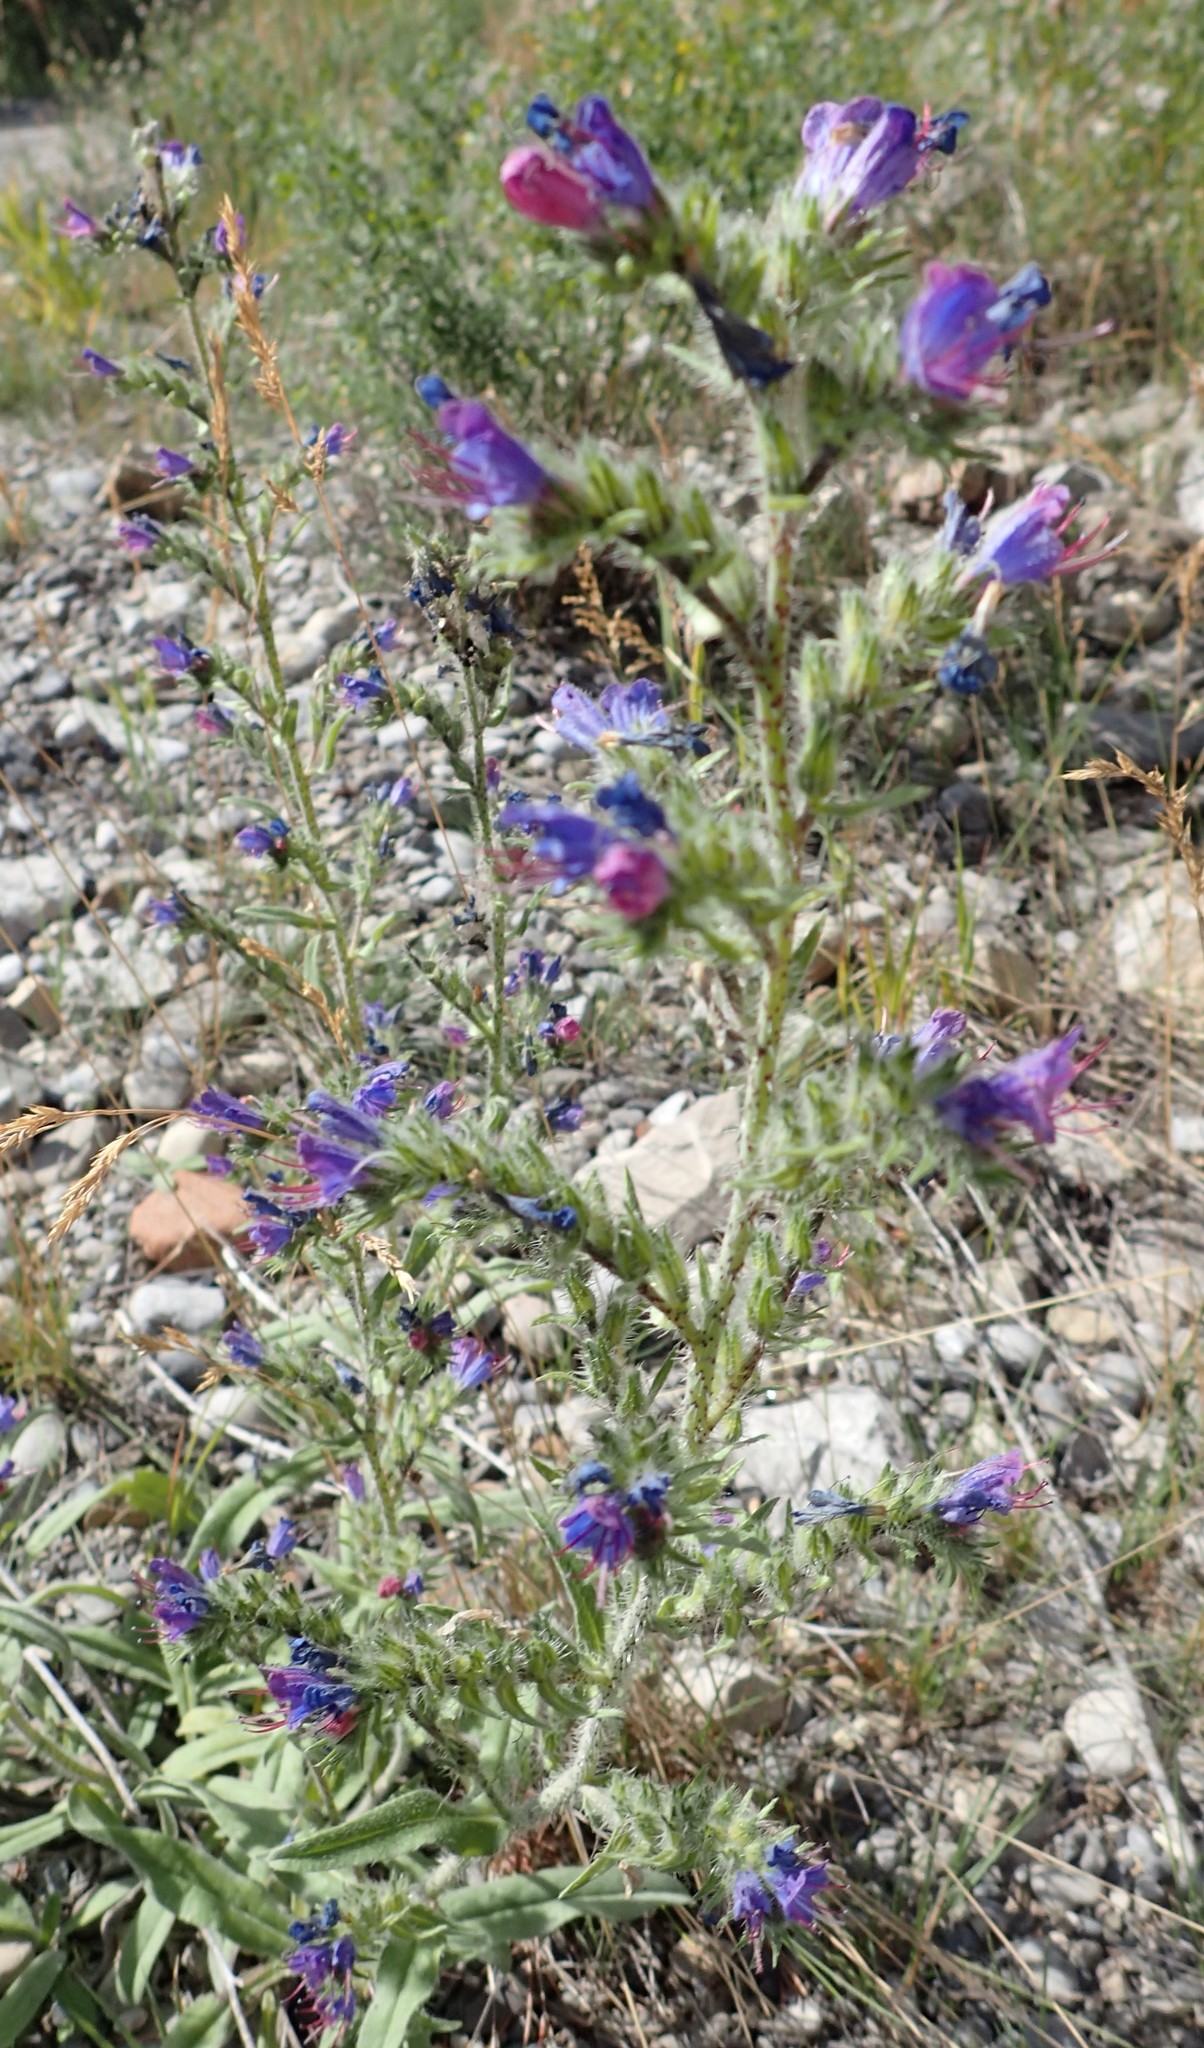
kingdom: Plantae
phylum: Tracheophyta
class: Magnoliopsida
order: Boraginales
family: Boraginaceae
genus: Echium
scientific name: Echium vulgare
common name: Common viper's bugloss
